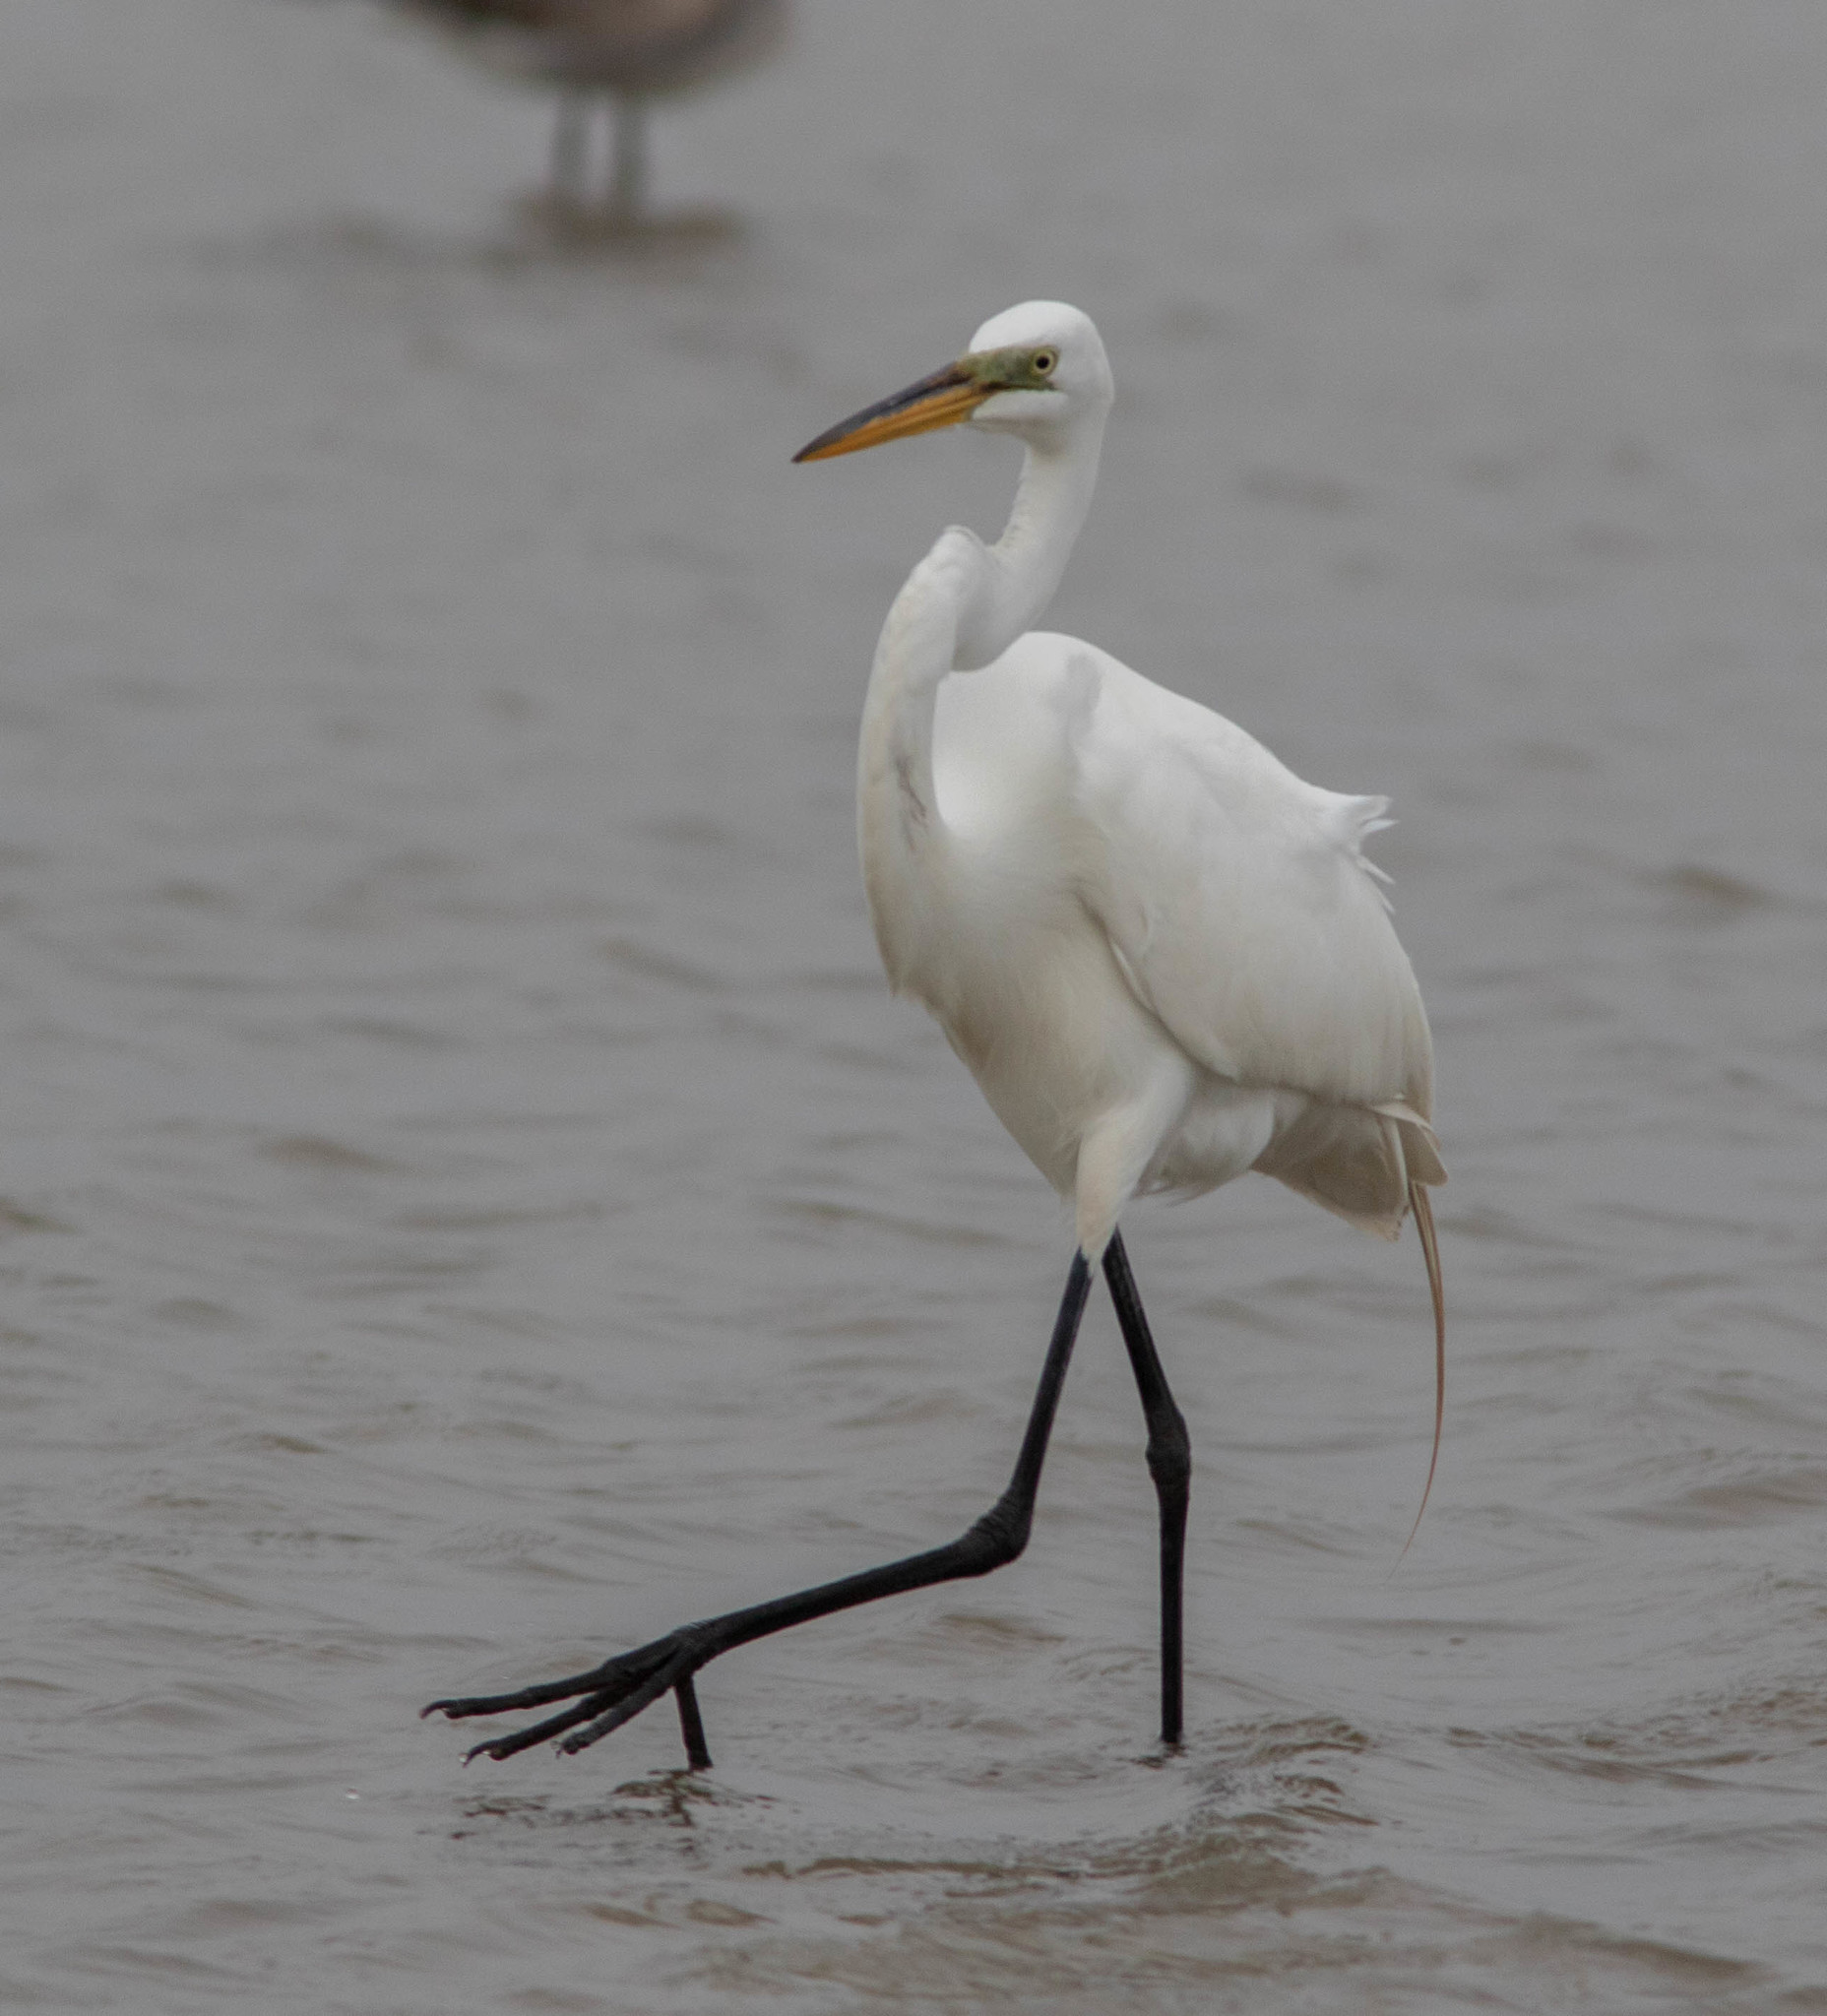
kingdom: Animalia
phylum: Chordata
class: Aves
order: Pelecaniformes
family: Ardeidae
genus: Ardea
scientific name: Ardea alba
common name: Great egret
